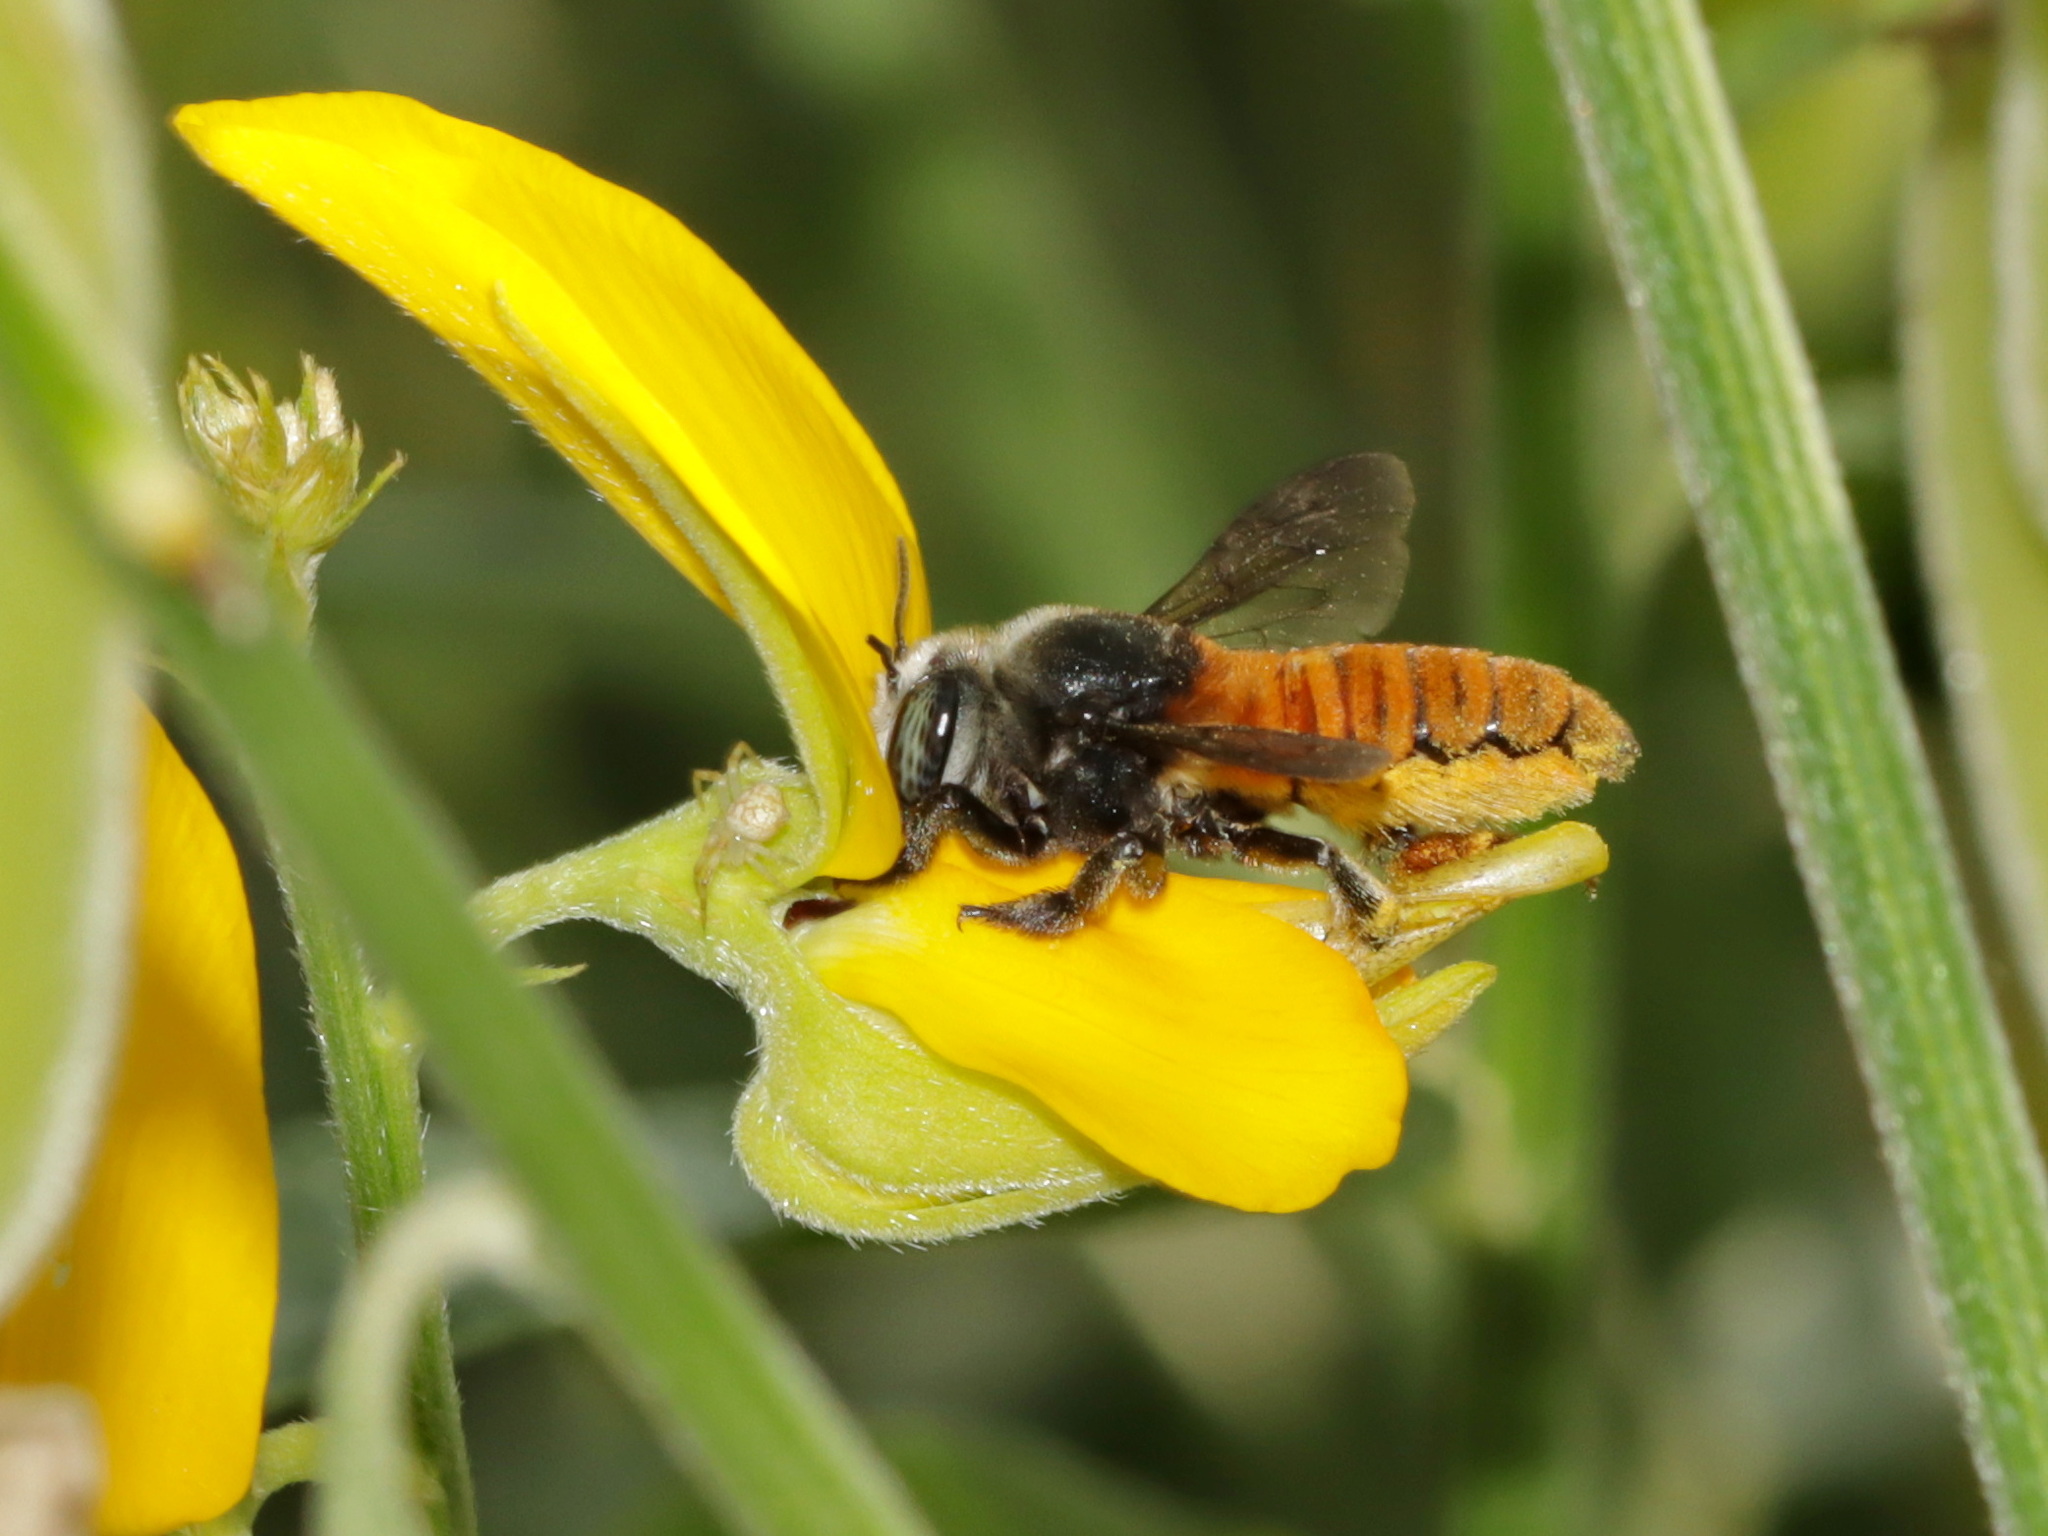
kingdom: Animalia
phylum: Arthropoda
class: Insecta
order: Hymenoptera
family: Megachilidae
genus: Megachile
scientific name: Megachile bicolor
